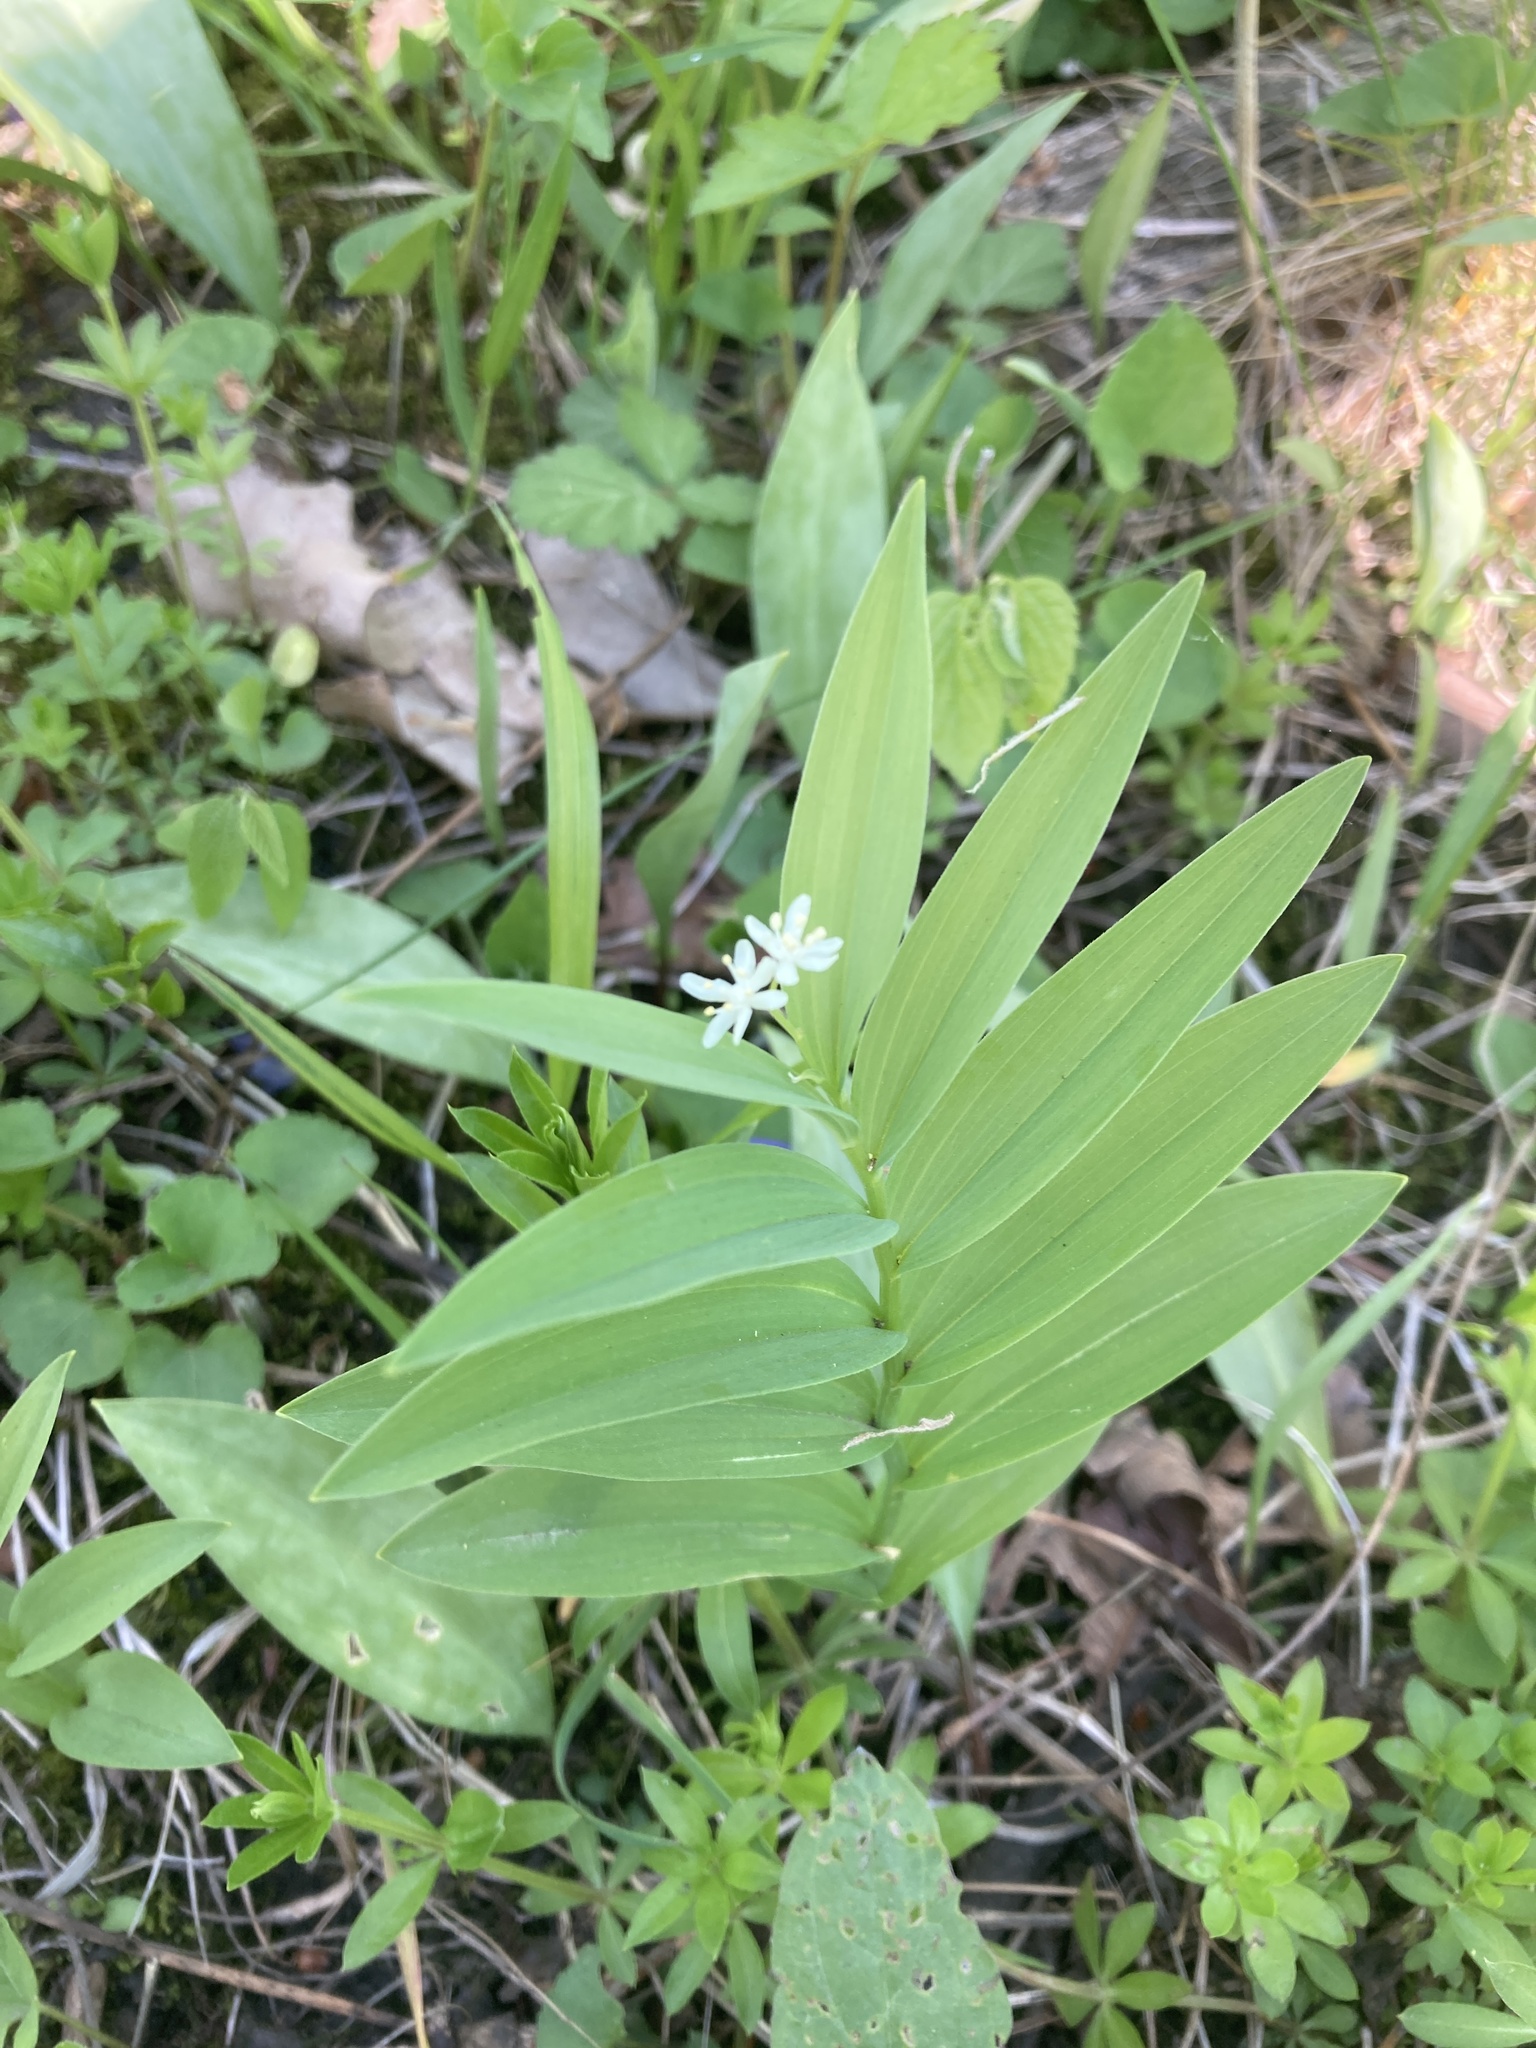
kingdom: Plantae
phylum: Tracheophyta
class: Liliopsida
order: Asparagales
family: Asparagaceae
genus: Maianthemum
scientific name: Maianthemum stellatum
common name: Little false solomon's seal
